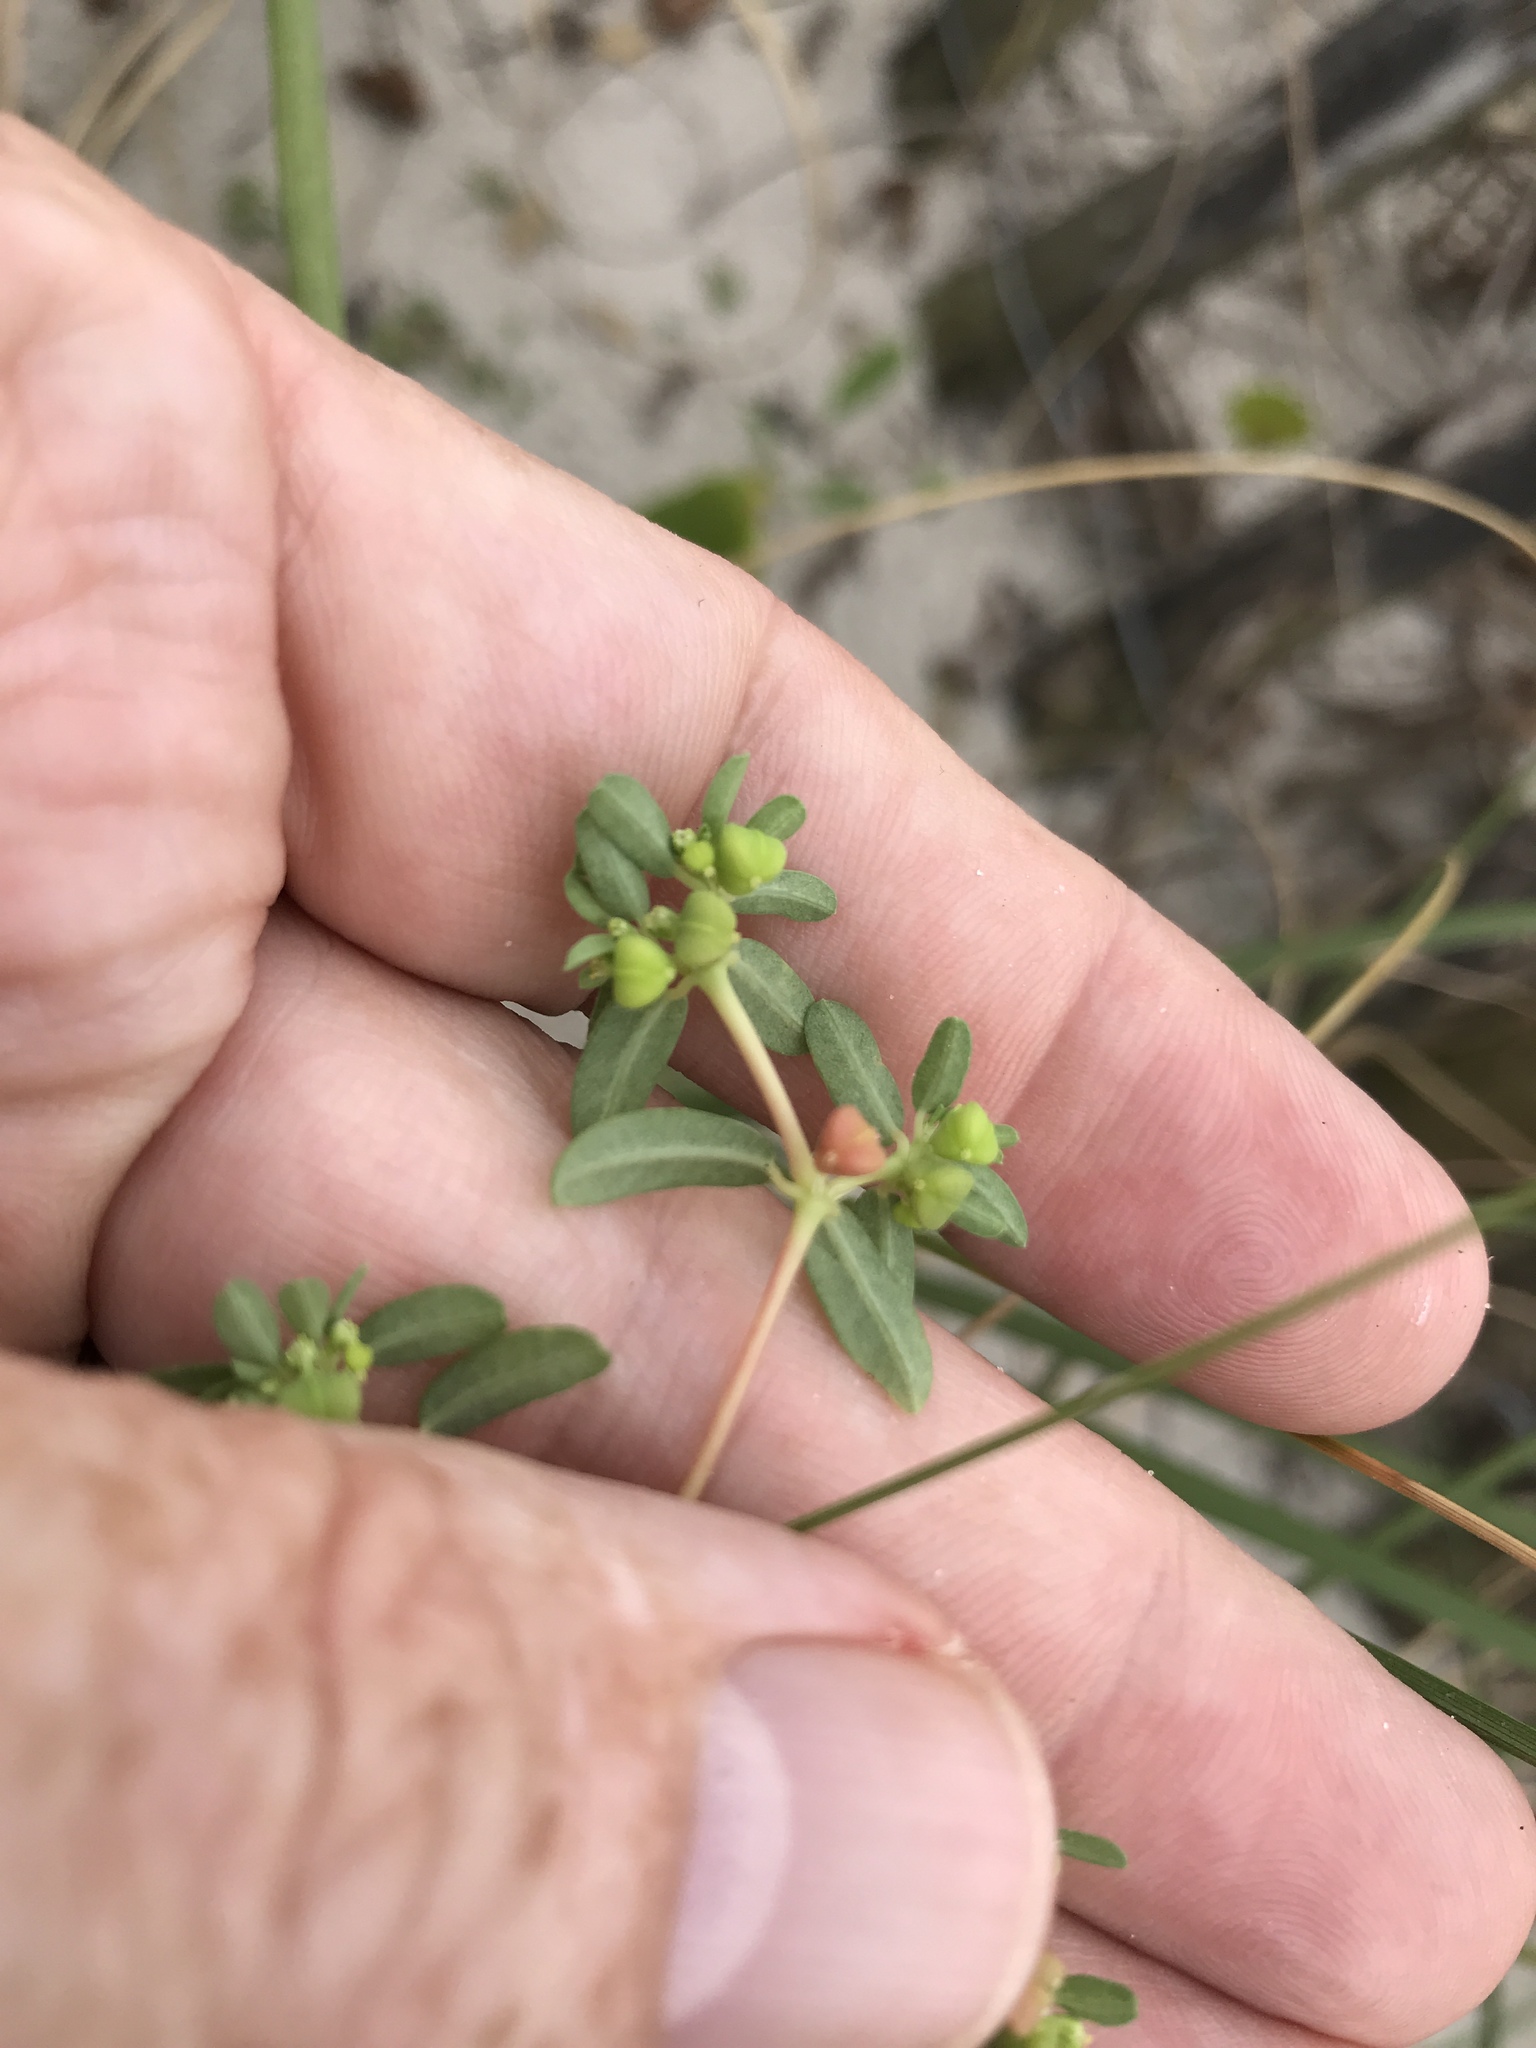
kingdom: Plantae
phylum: Tracheophyta
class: Magnoliopsida
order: Malpighiales
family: Euphorbiaceae
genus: Euphorbia
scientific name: Euphorbia bombensis
